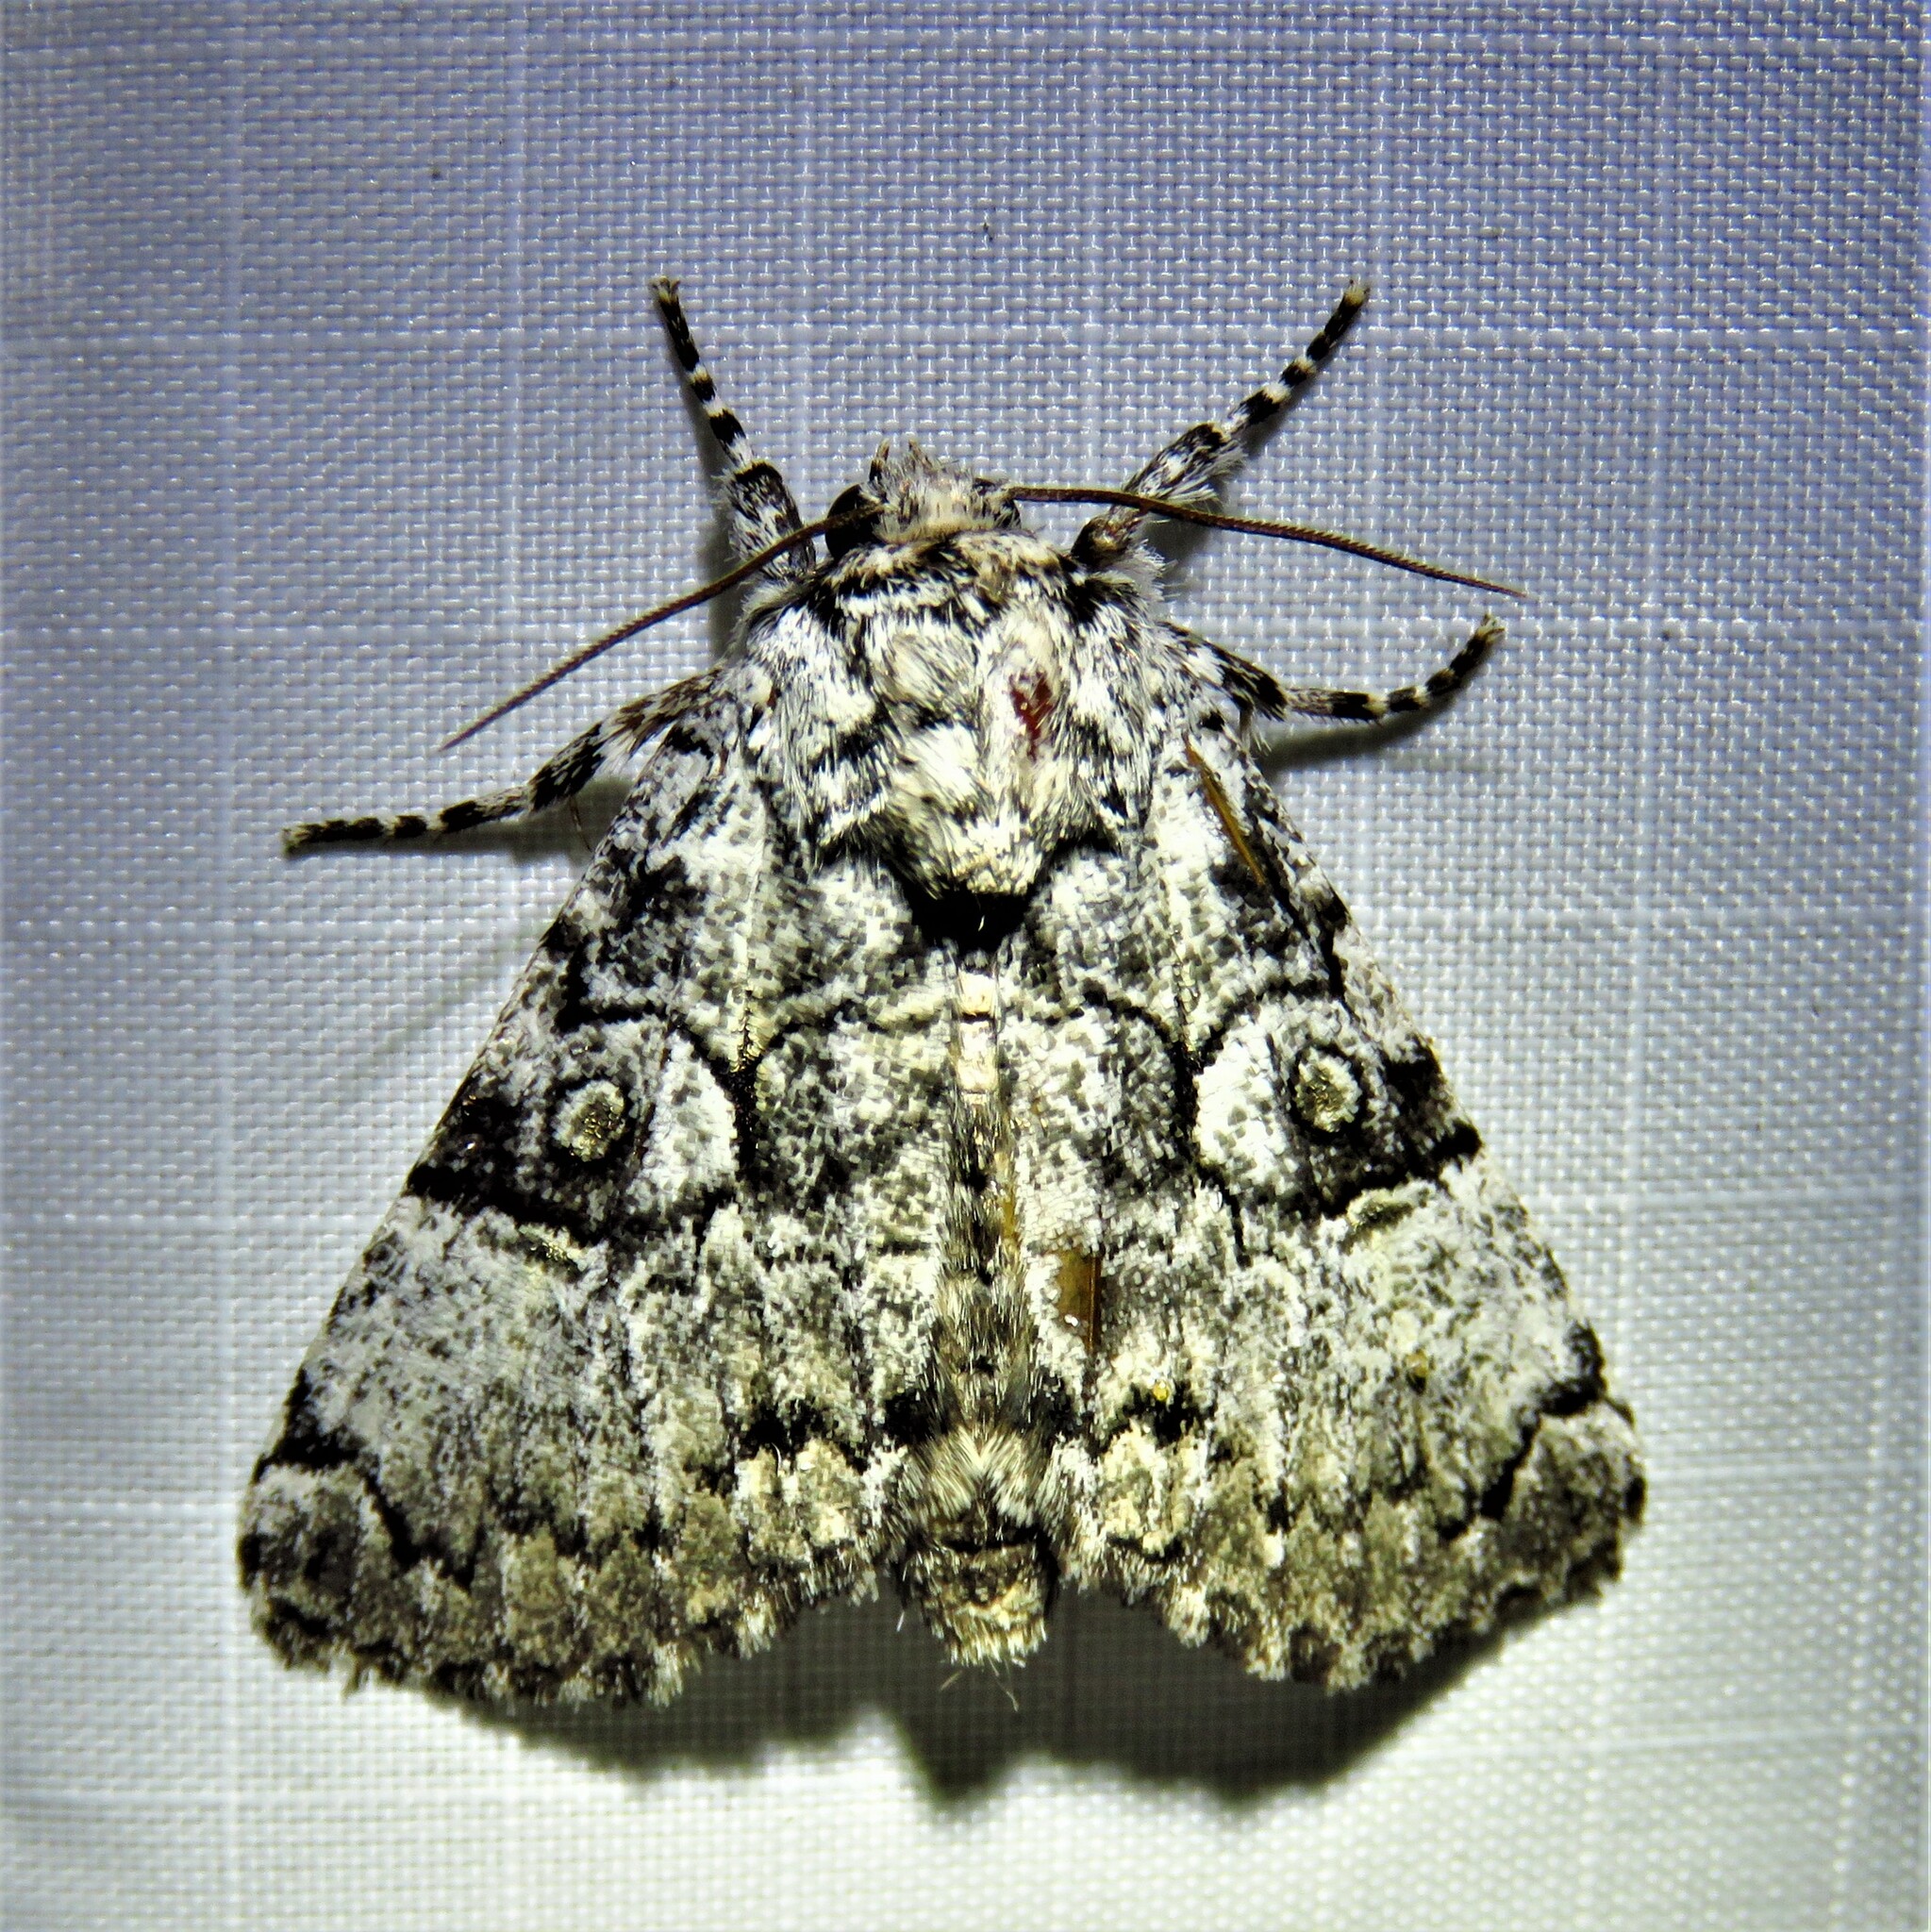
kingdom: Animalia
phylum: Arthropoda
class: Insecta
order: Lepidoptera
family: Noctuidae
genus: Charadra
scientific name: Charadra deridens
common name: Marbled tuffet
